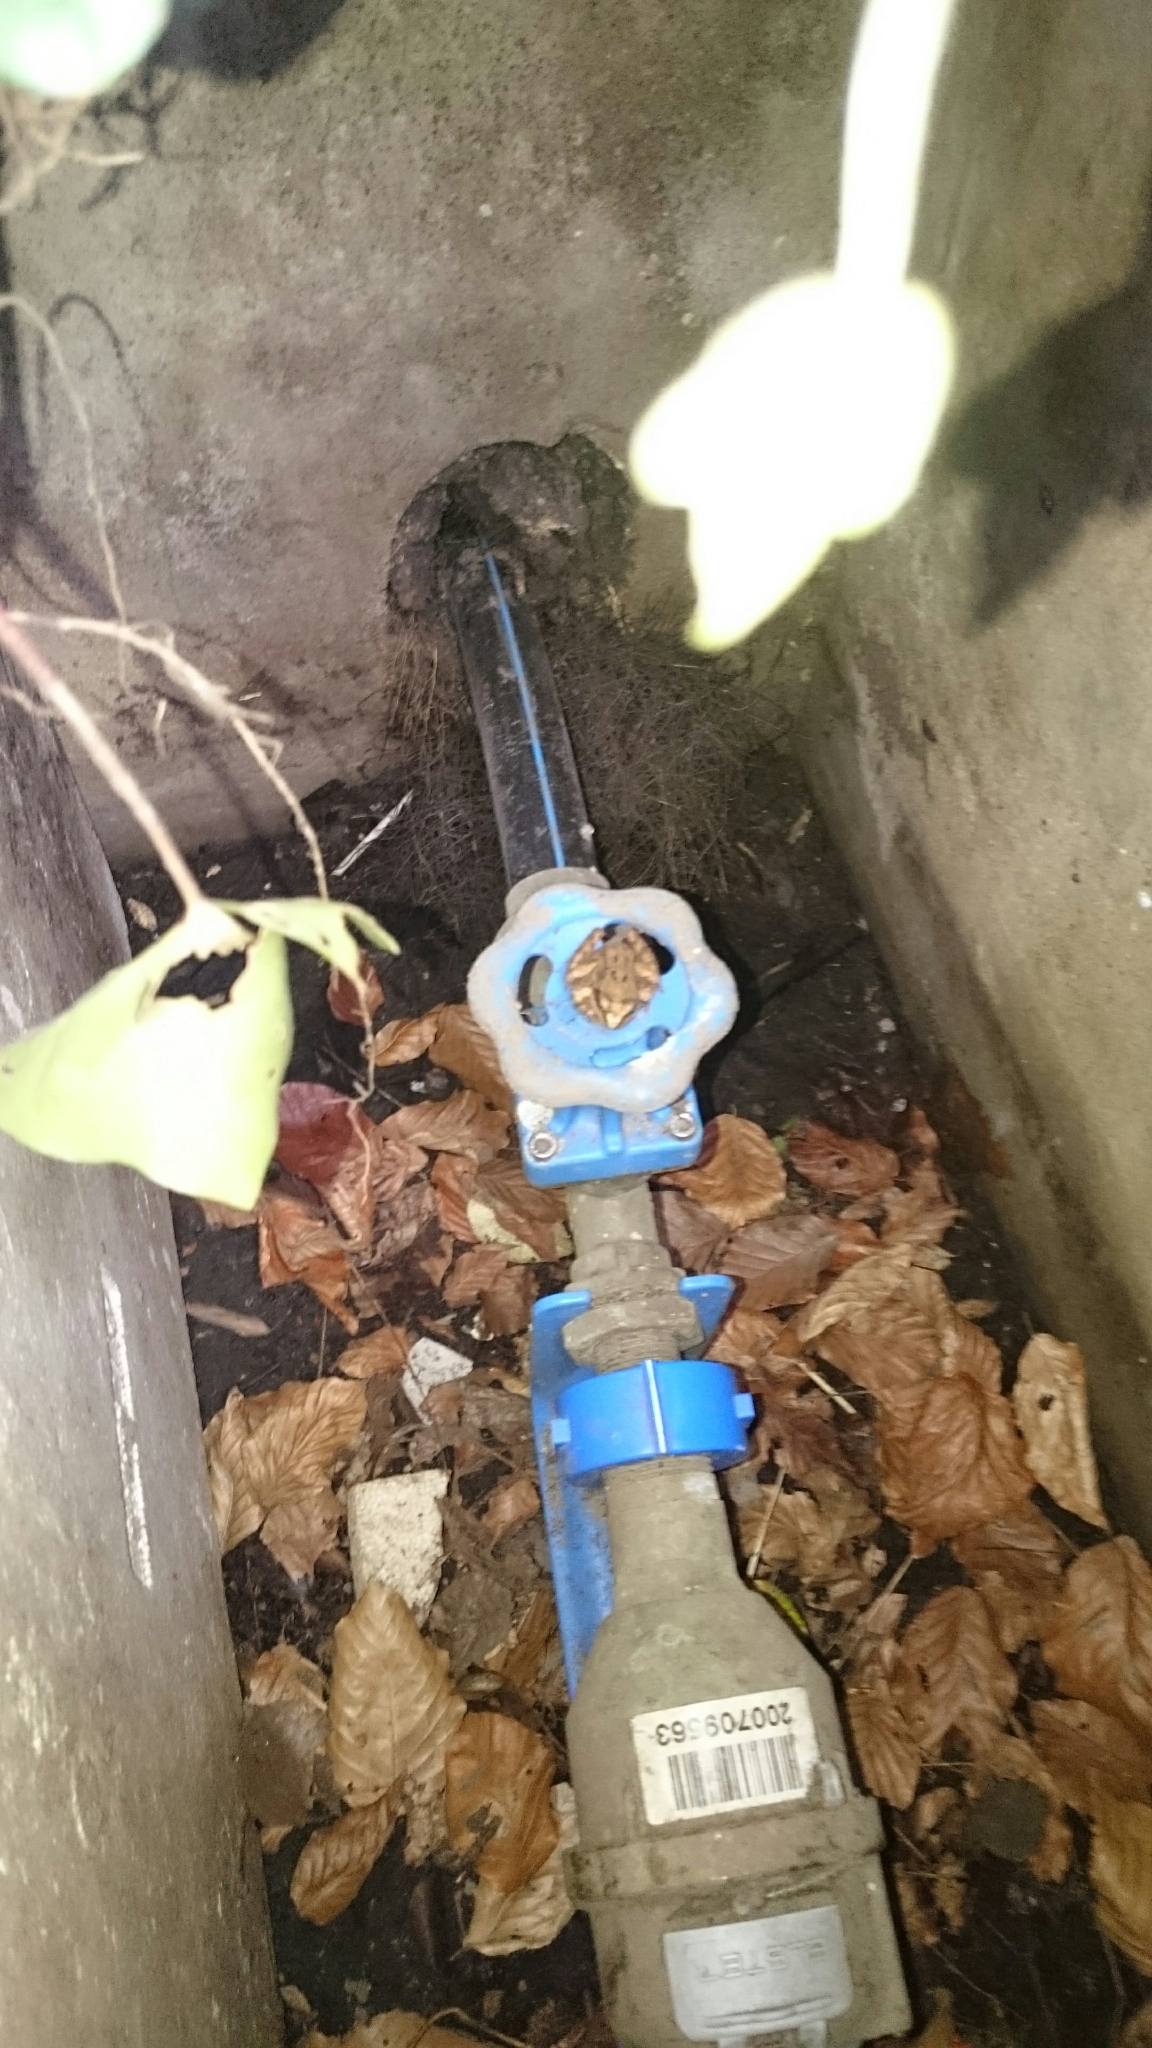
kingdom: Animalia
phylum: Chordata
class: Amphibia
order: Anura
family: Ranidae
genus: Rana
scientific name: Rana temporaria
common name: Common frog
